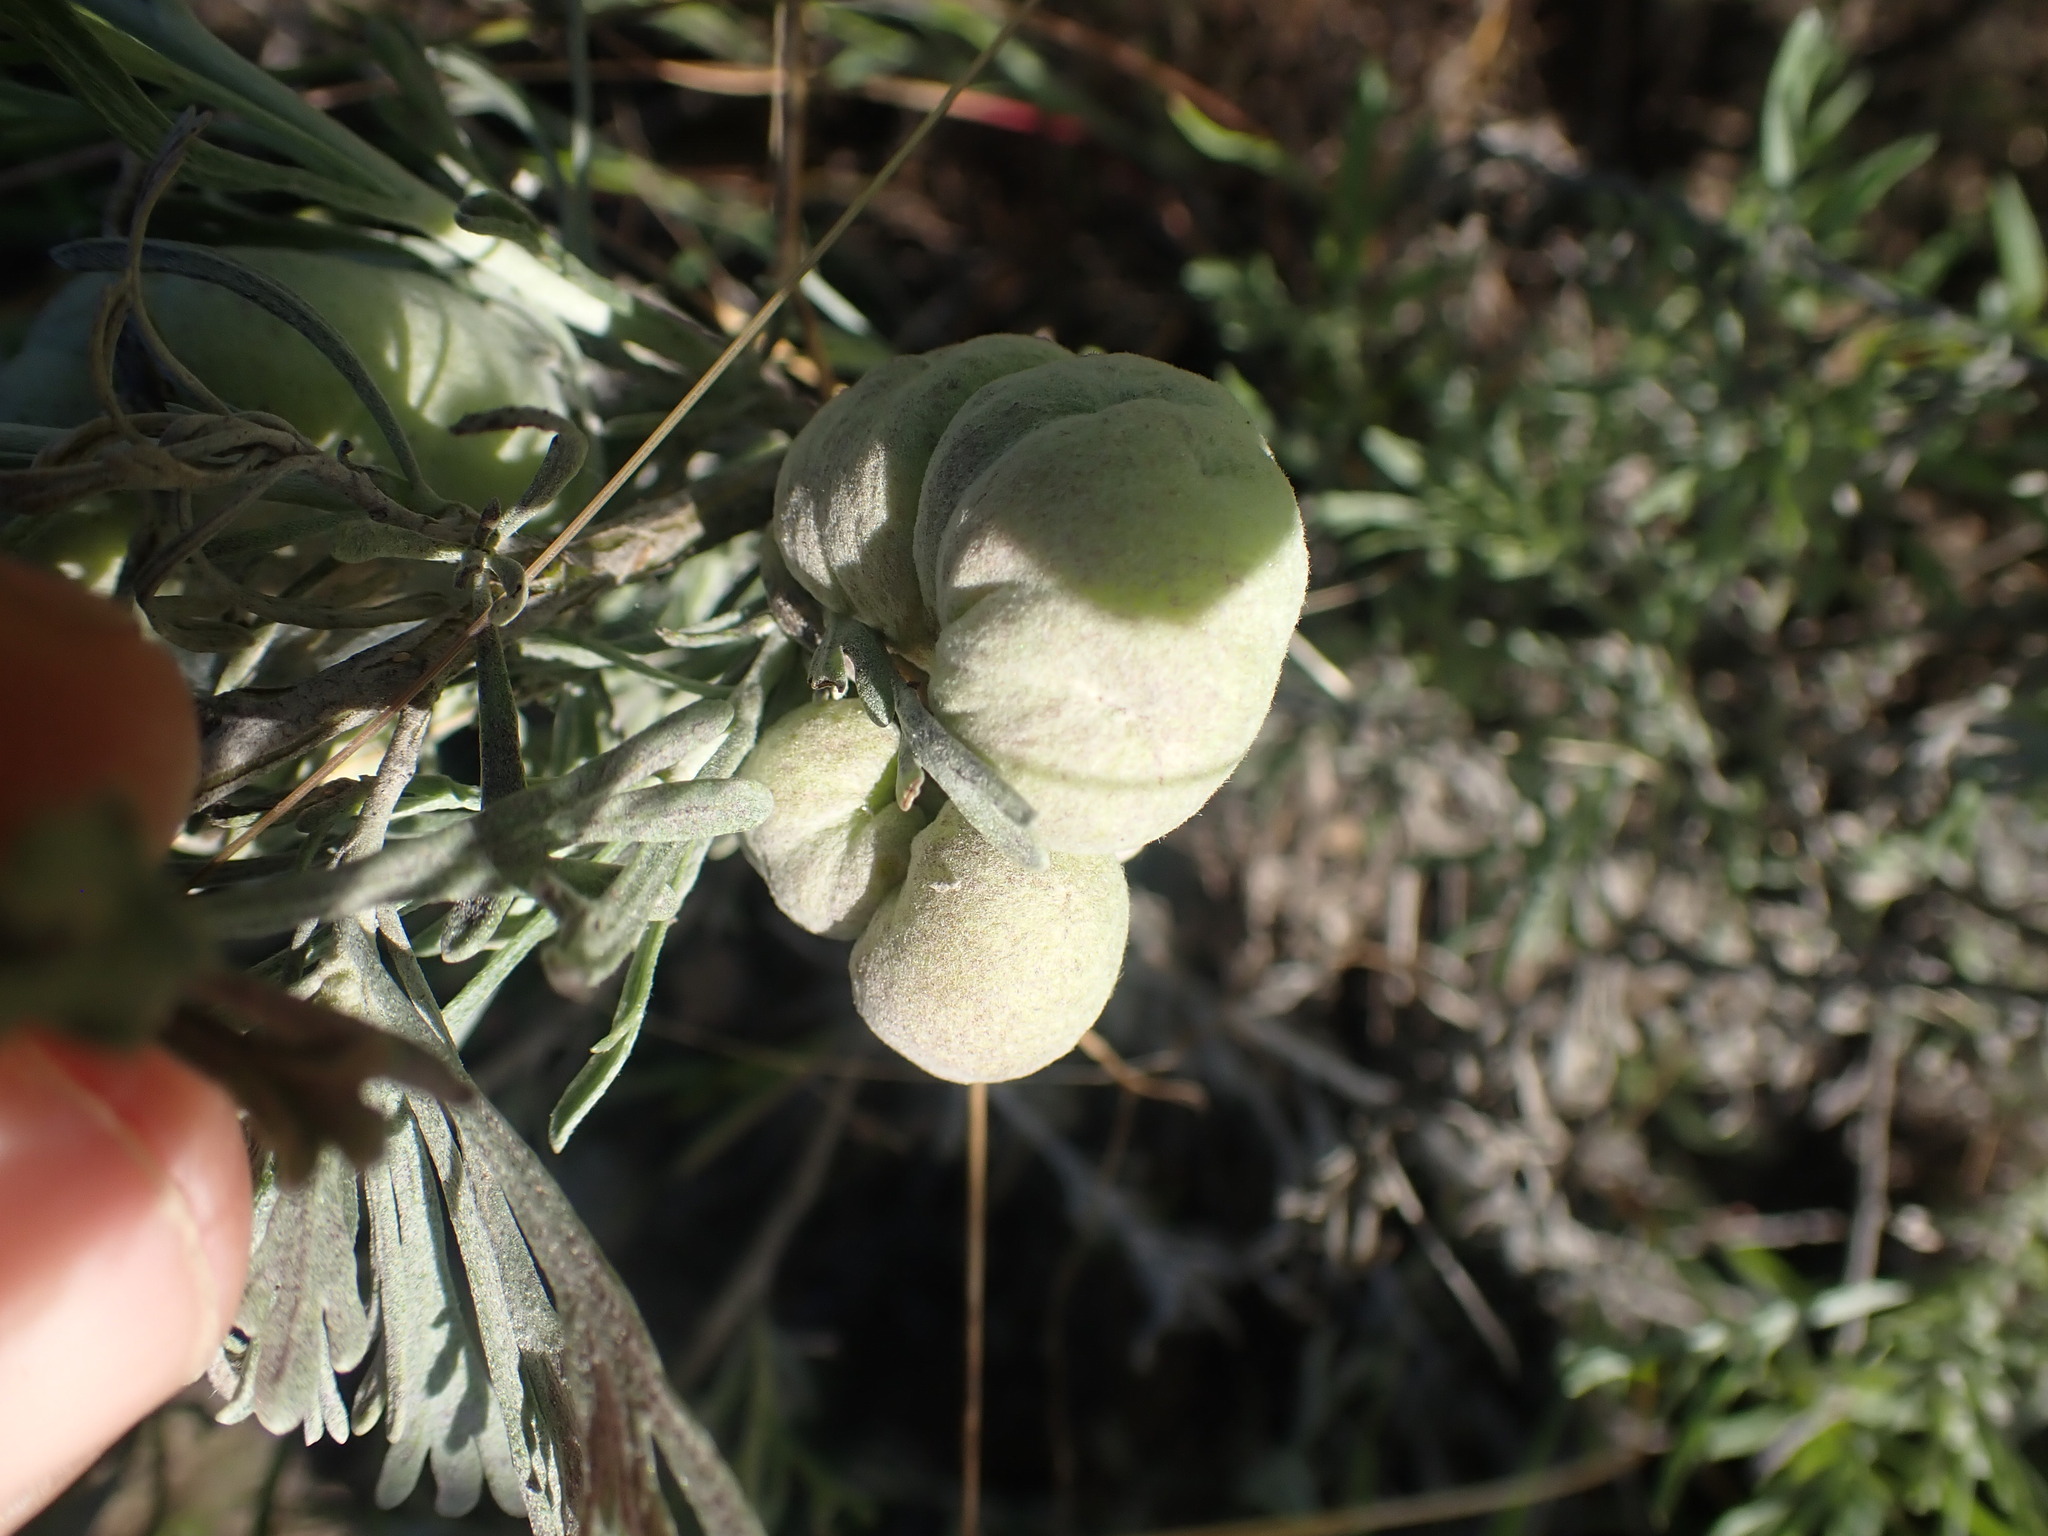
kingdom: Animalia
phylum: Arthropoda
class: Insecta
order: Diptera
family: Cecidomyiidae
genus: Rhopalomyia
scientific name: Rhopalomyia pomum
